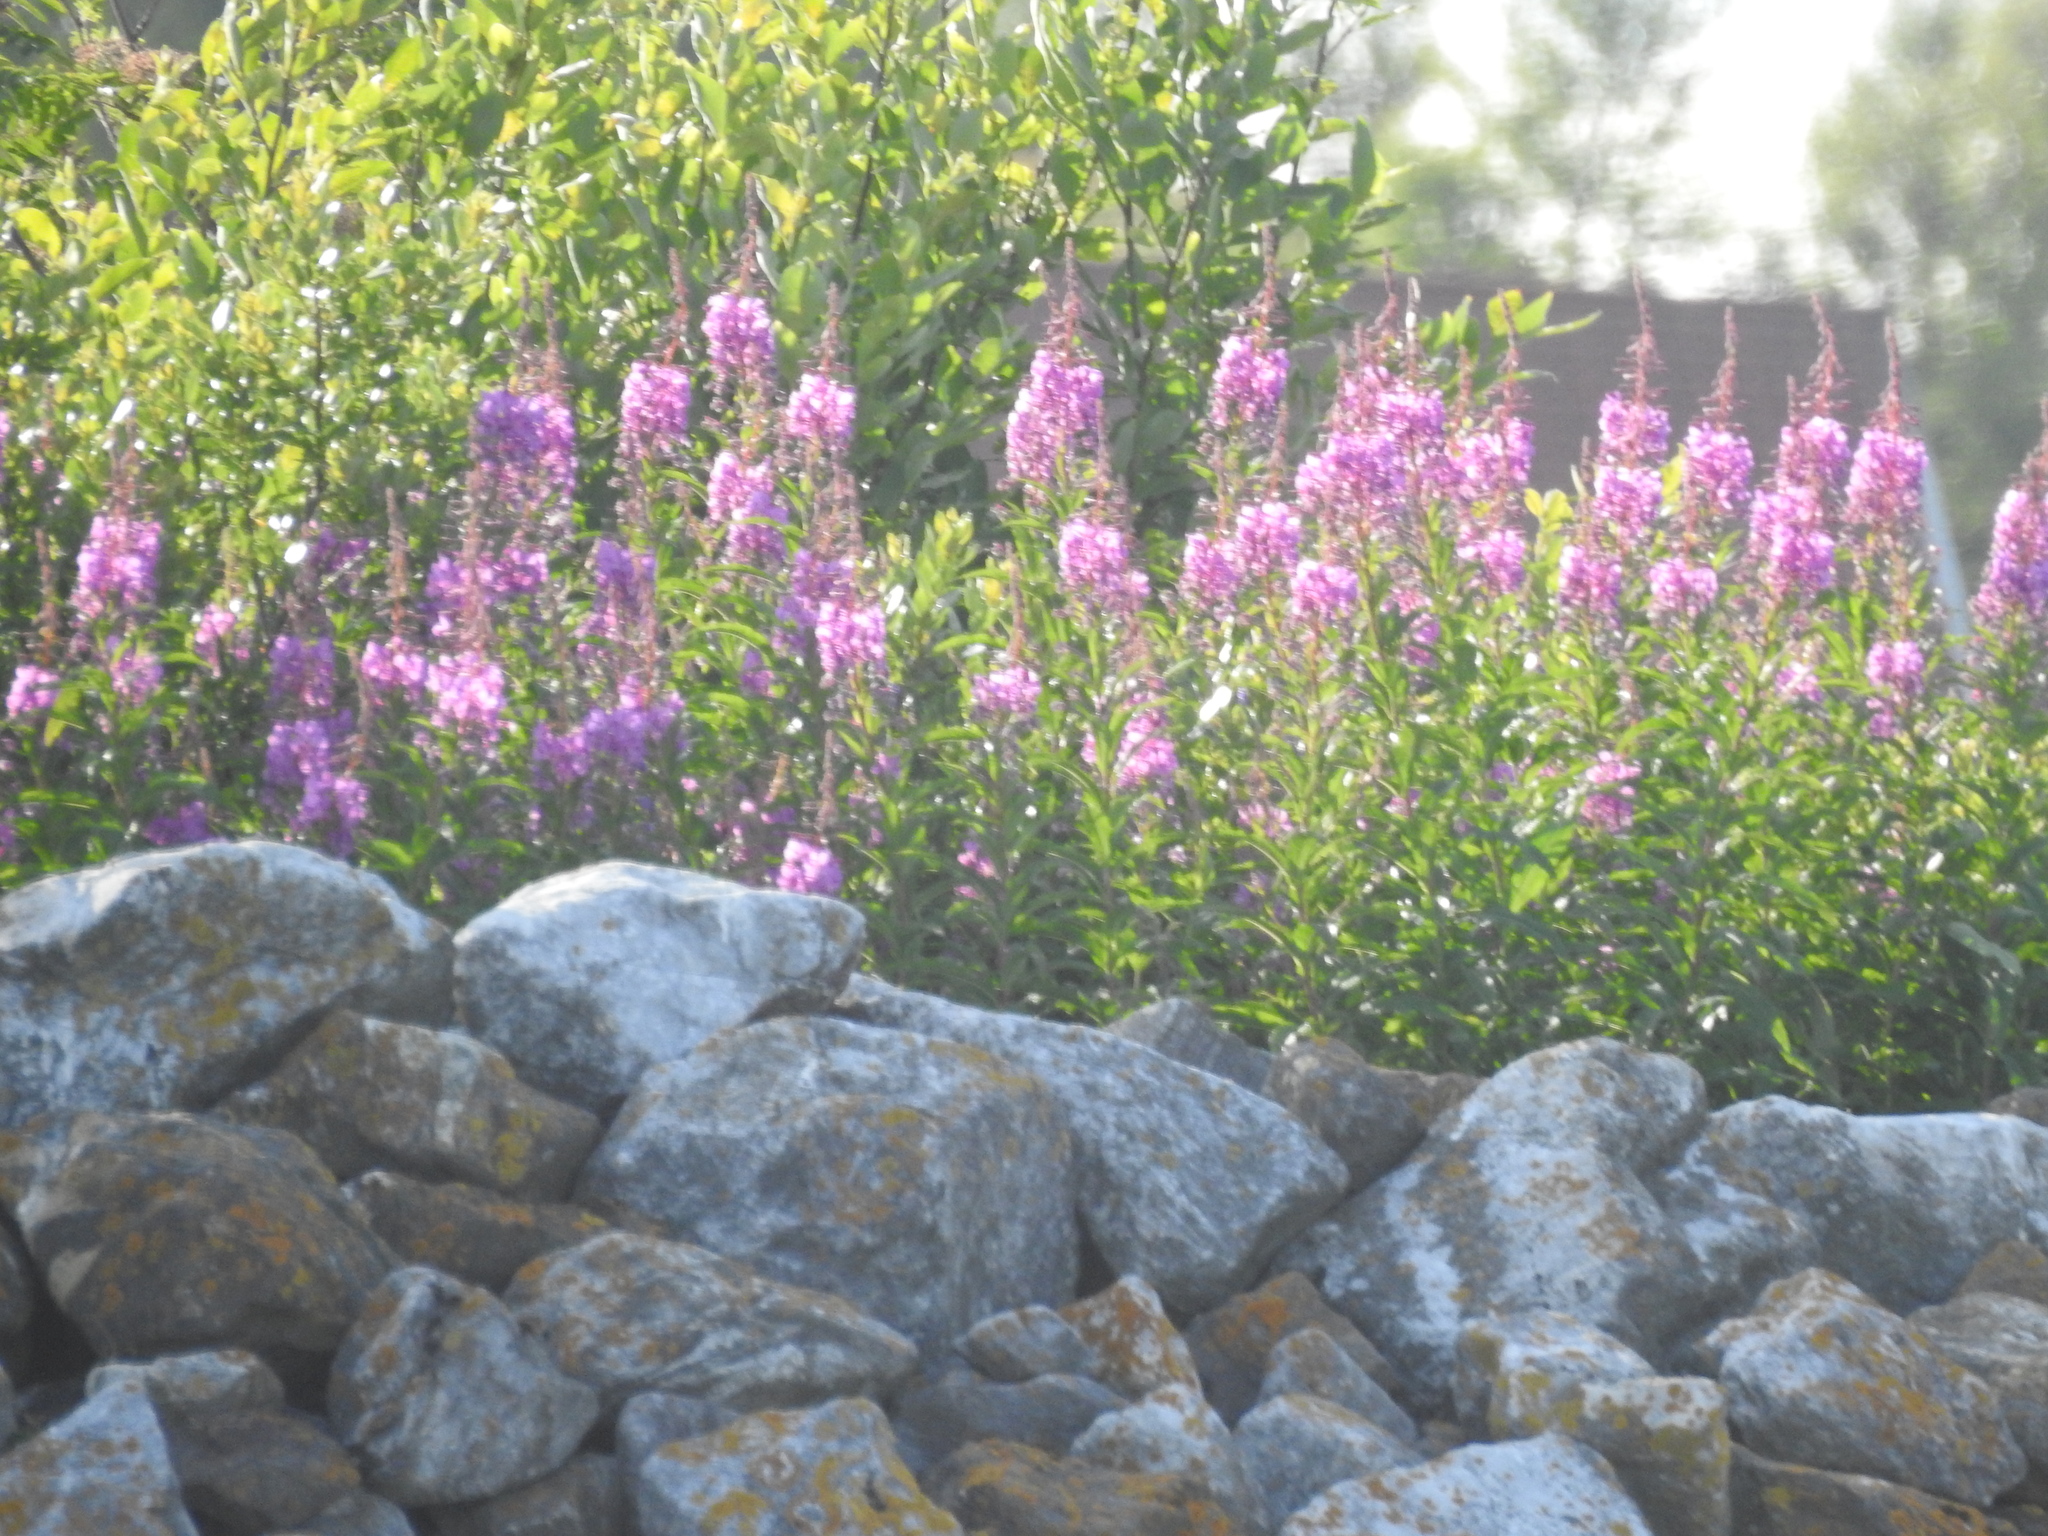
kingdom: Plantae
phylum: Tracheophyta
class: Magnoliopsida
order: Myrtales
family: Onagraceae
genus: Chamaenerion
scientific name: Chamaenerion angustifolium
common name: Fireweed
